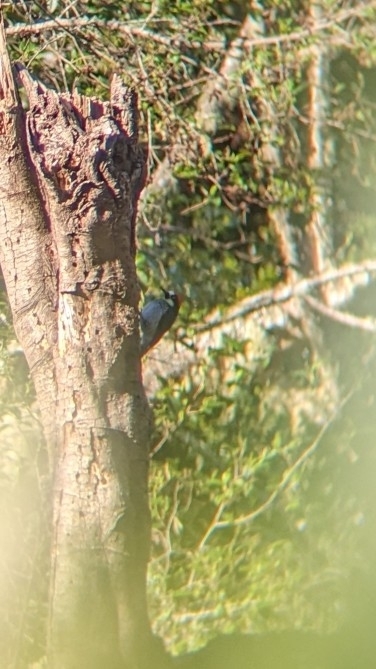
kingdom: Animalia
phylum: Chordata
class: Aves
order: Piciformes
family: Picidae
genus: Melanerpes
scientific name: Melanerpes formicivorus
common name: Acorn woodpecker
